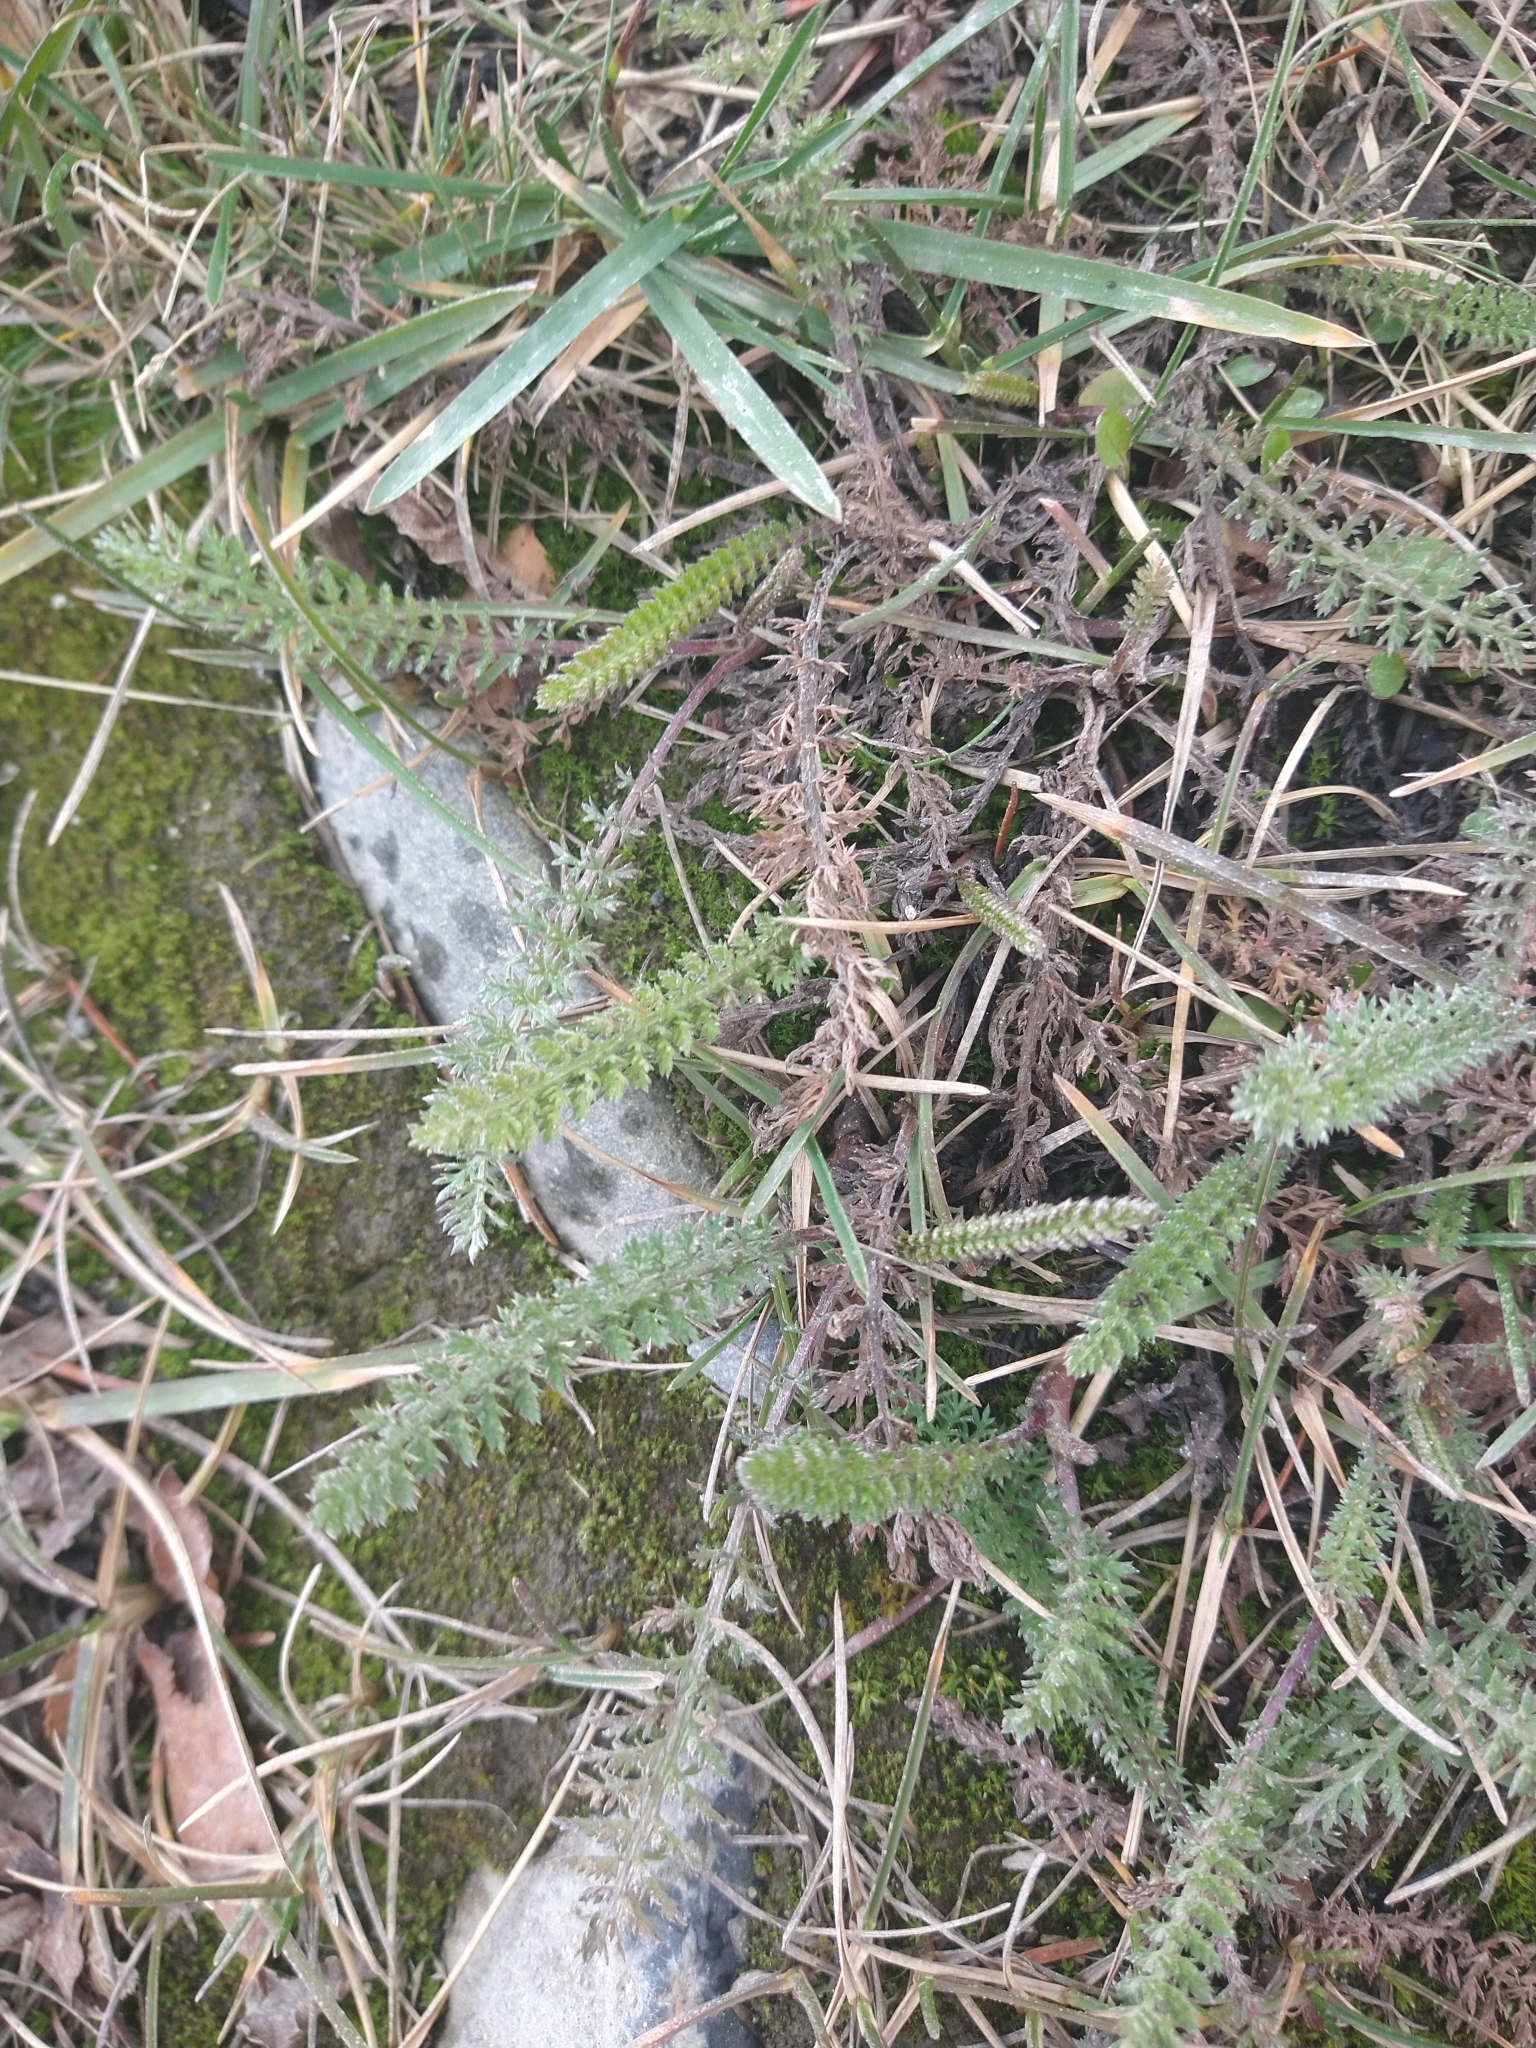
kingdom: Plantae
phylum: Tracheophyta
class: Magnoliopsida
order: Asterales
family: Asteraceae
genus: Achillea
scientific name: Achillea millefolium
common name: Yarrow
